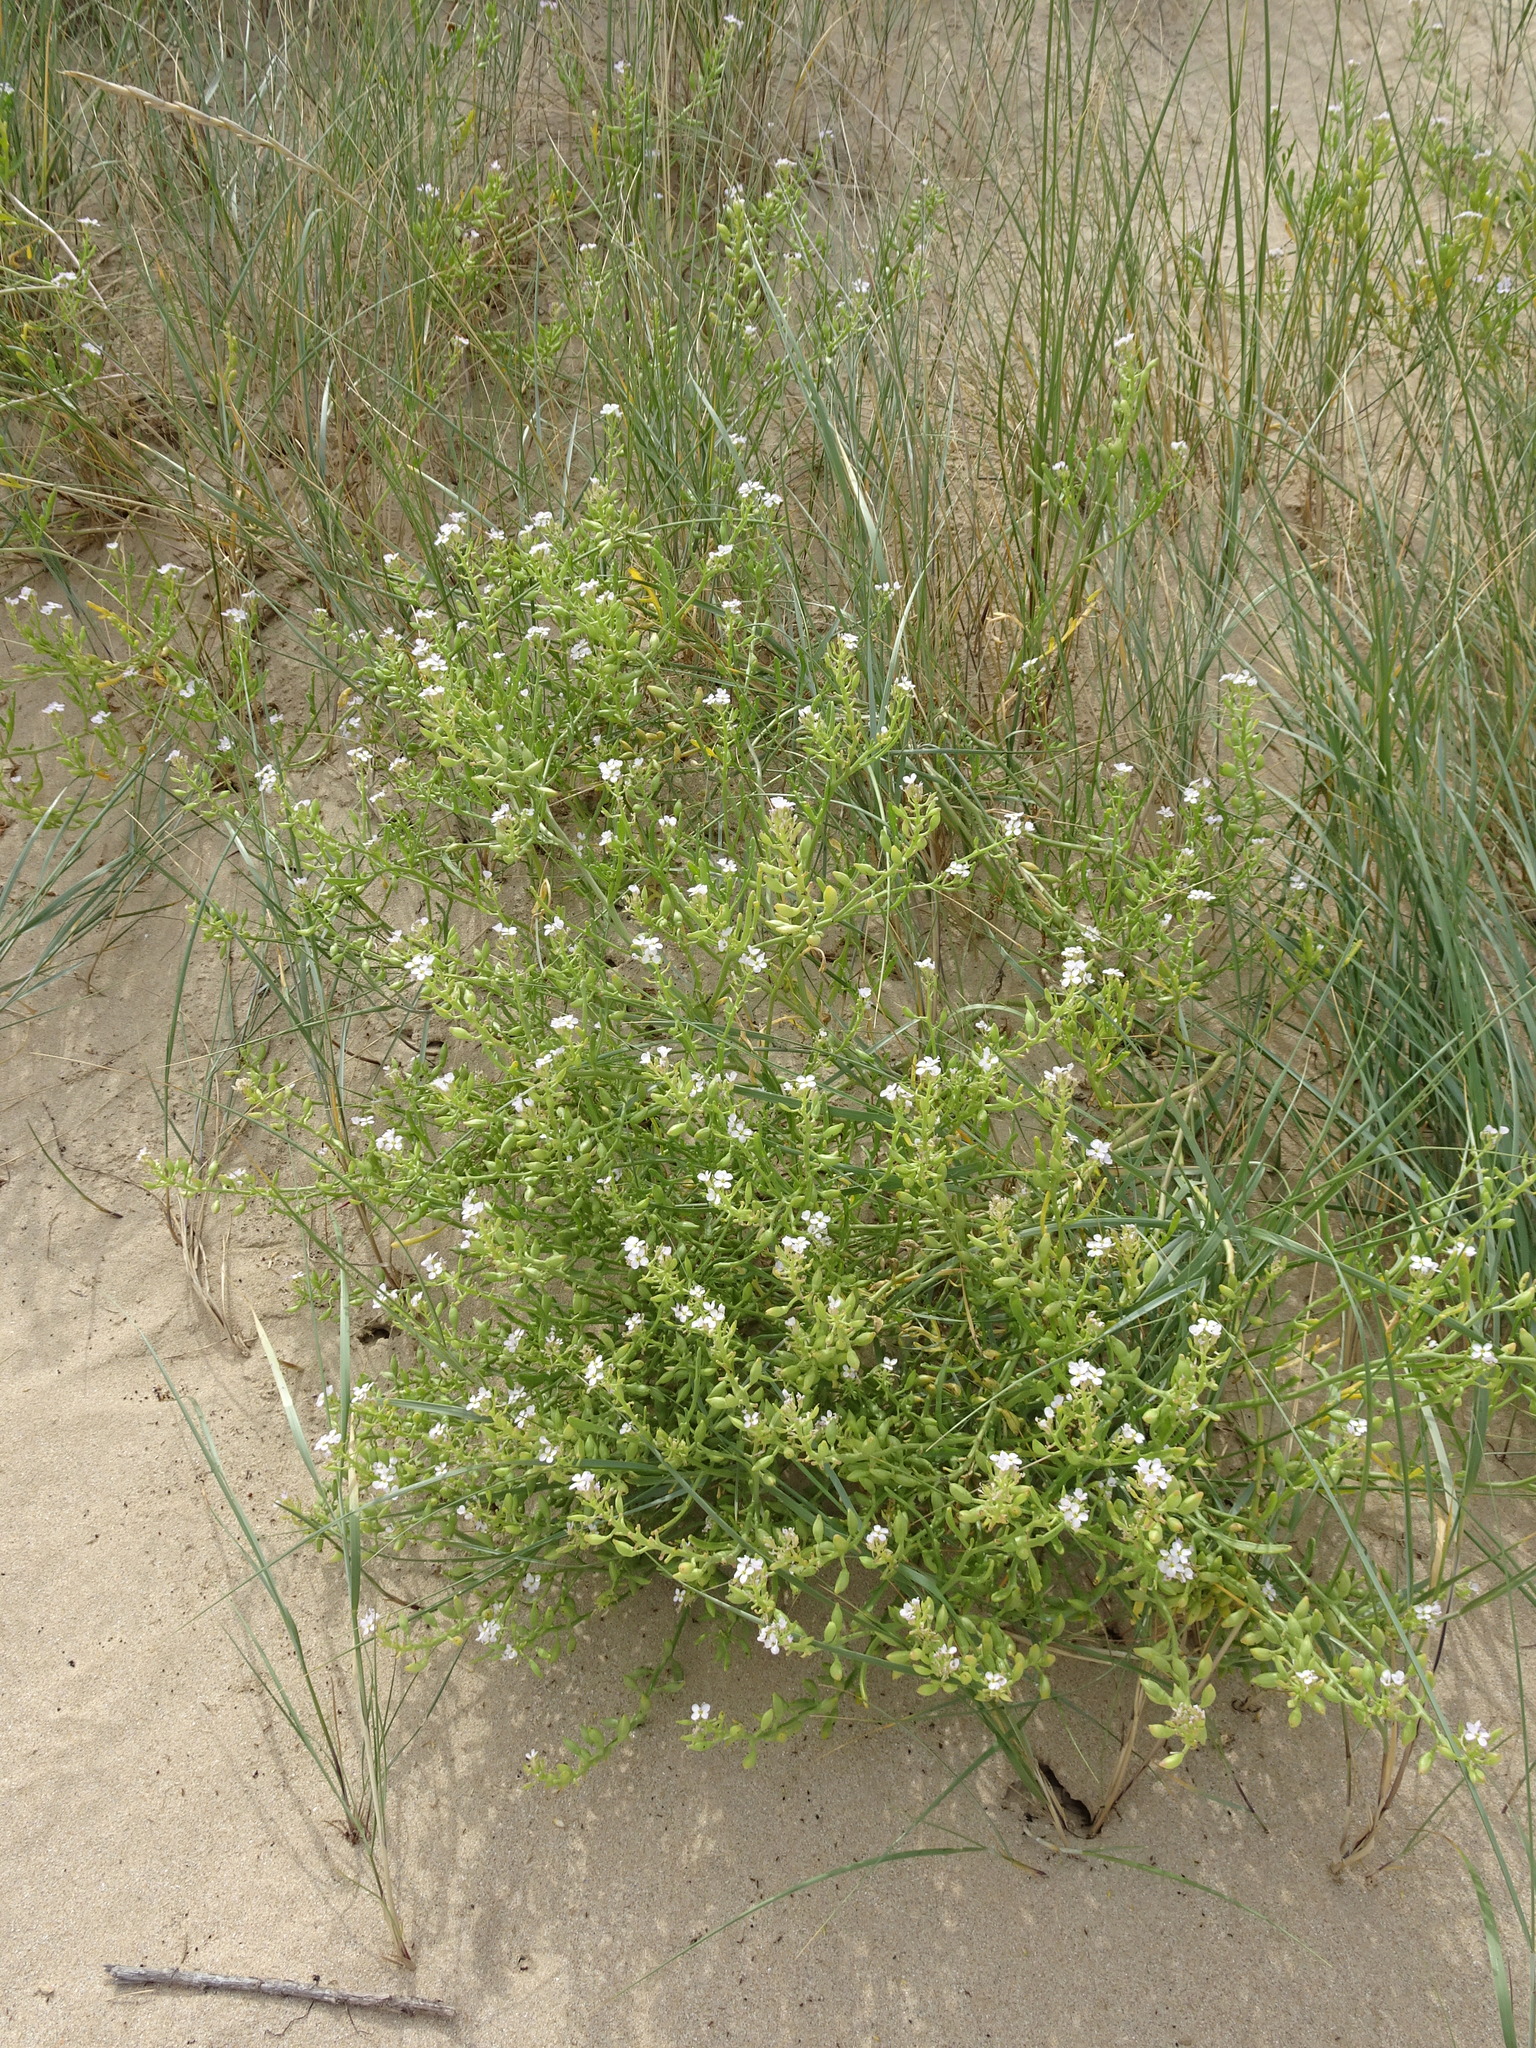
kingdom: Plantae
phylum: Tracheophyta
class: Magnoliopsida
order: Brassicales
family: Brassicaceae
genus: Cakile
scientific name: Cakile maritima
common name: Sea rocket
